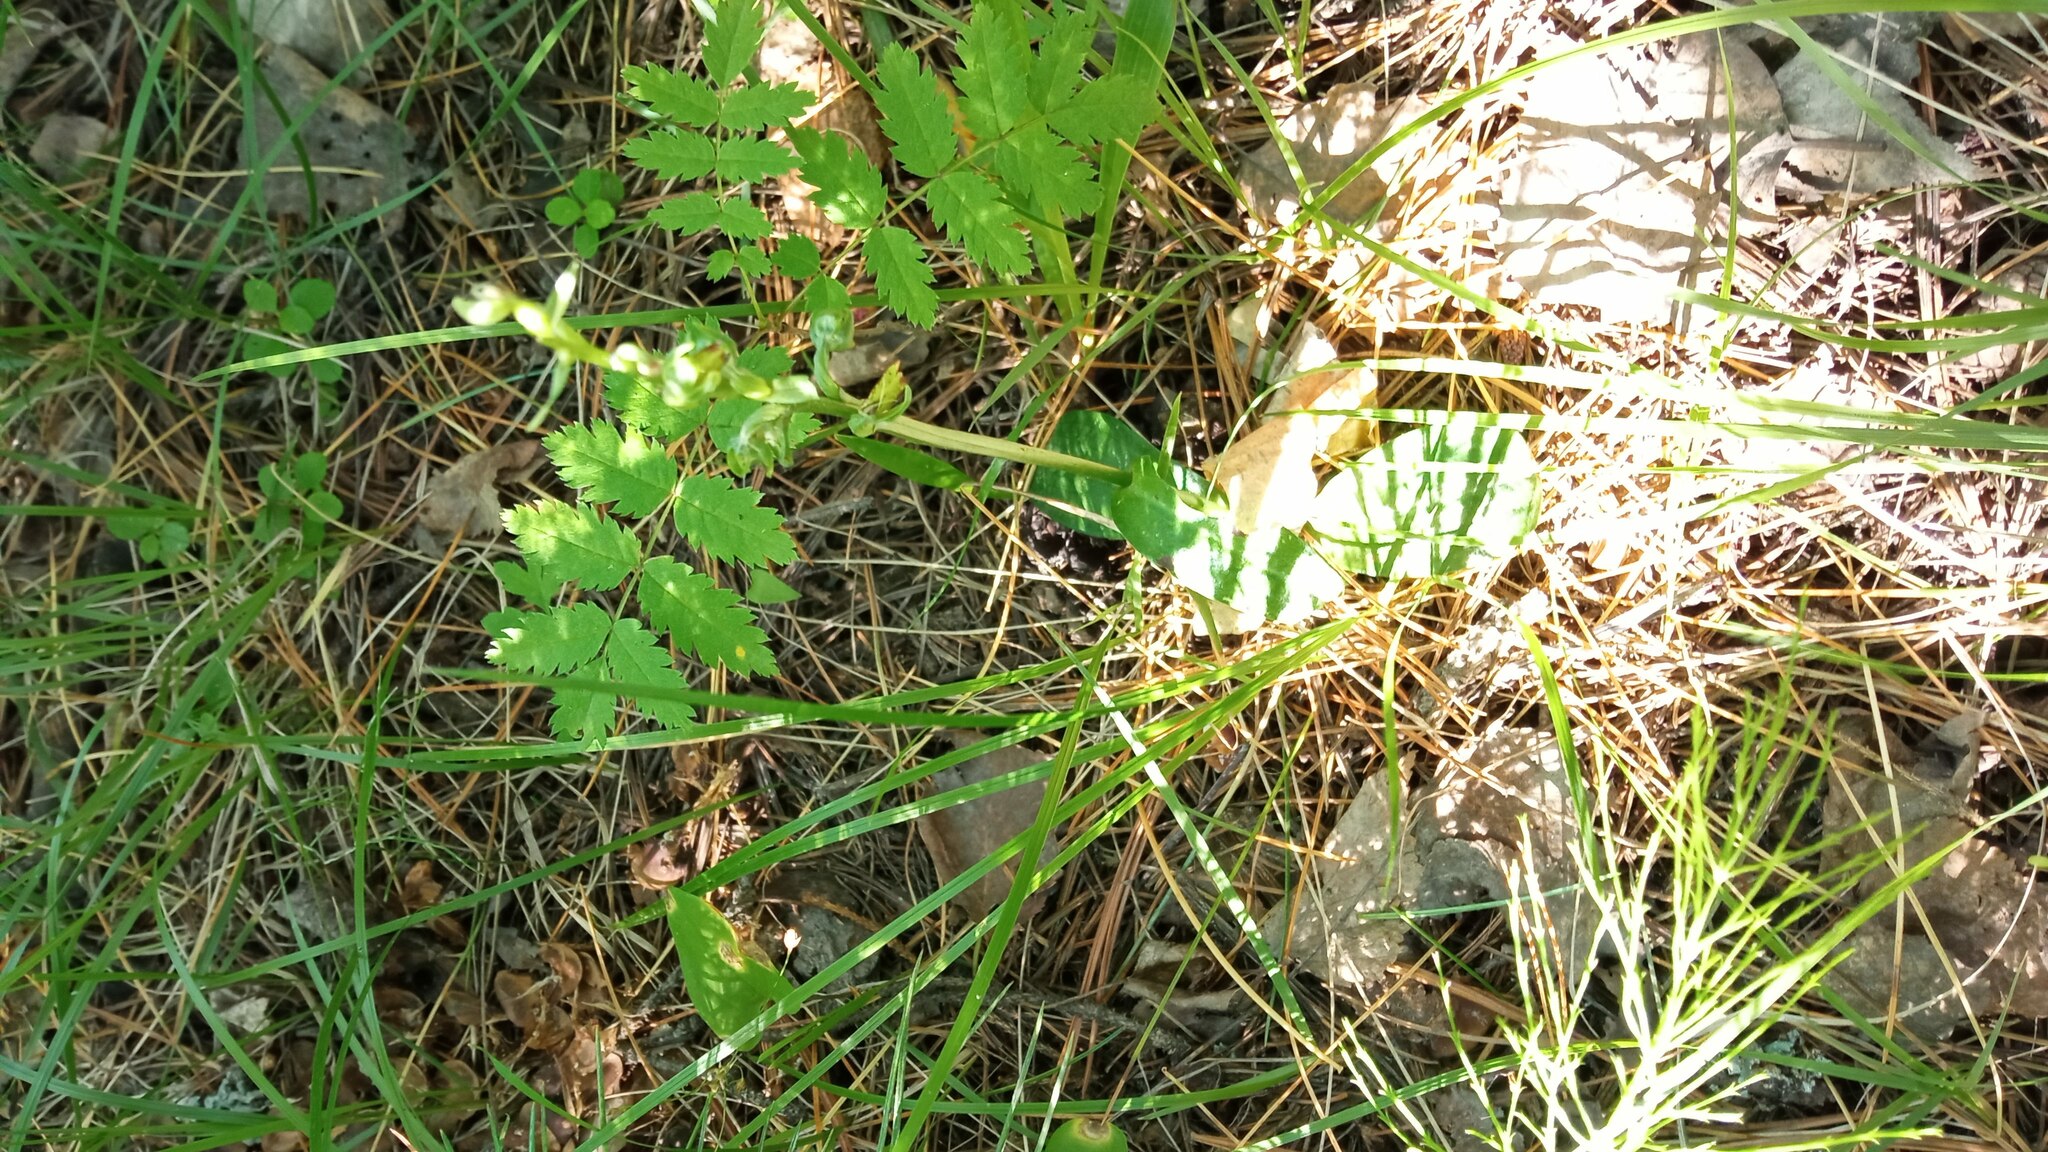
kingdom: Plantae
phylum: Tracheophyta
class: Liliopsida
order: Asparagales
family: Orchidaceae
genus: Dactylorhiza
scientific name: Dactylorhiza viridis
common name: Longbract frog orchid
